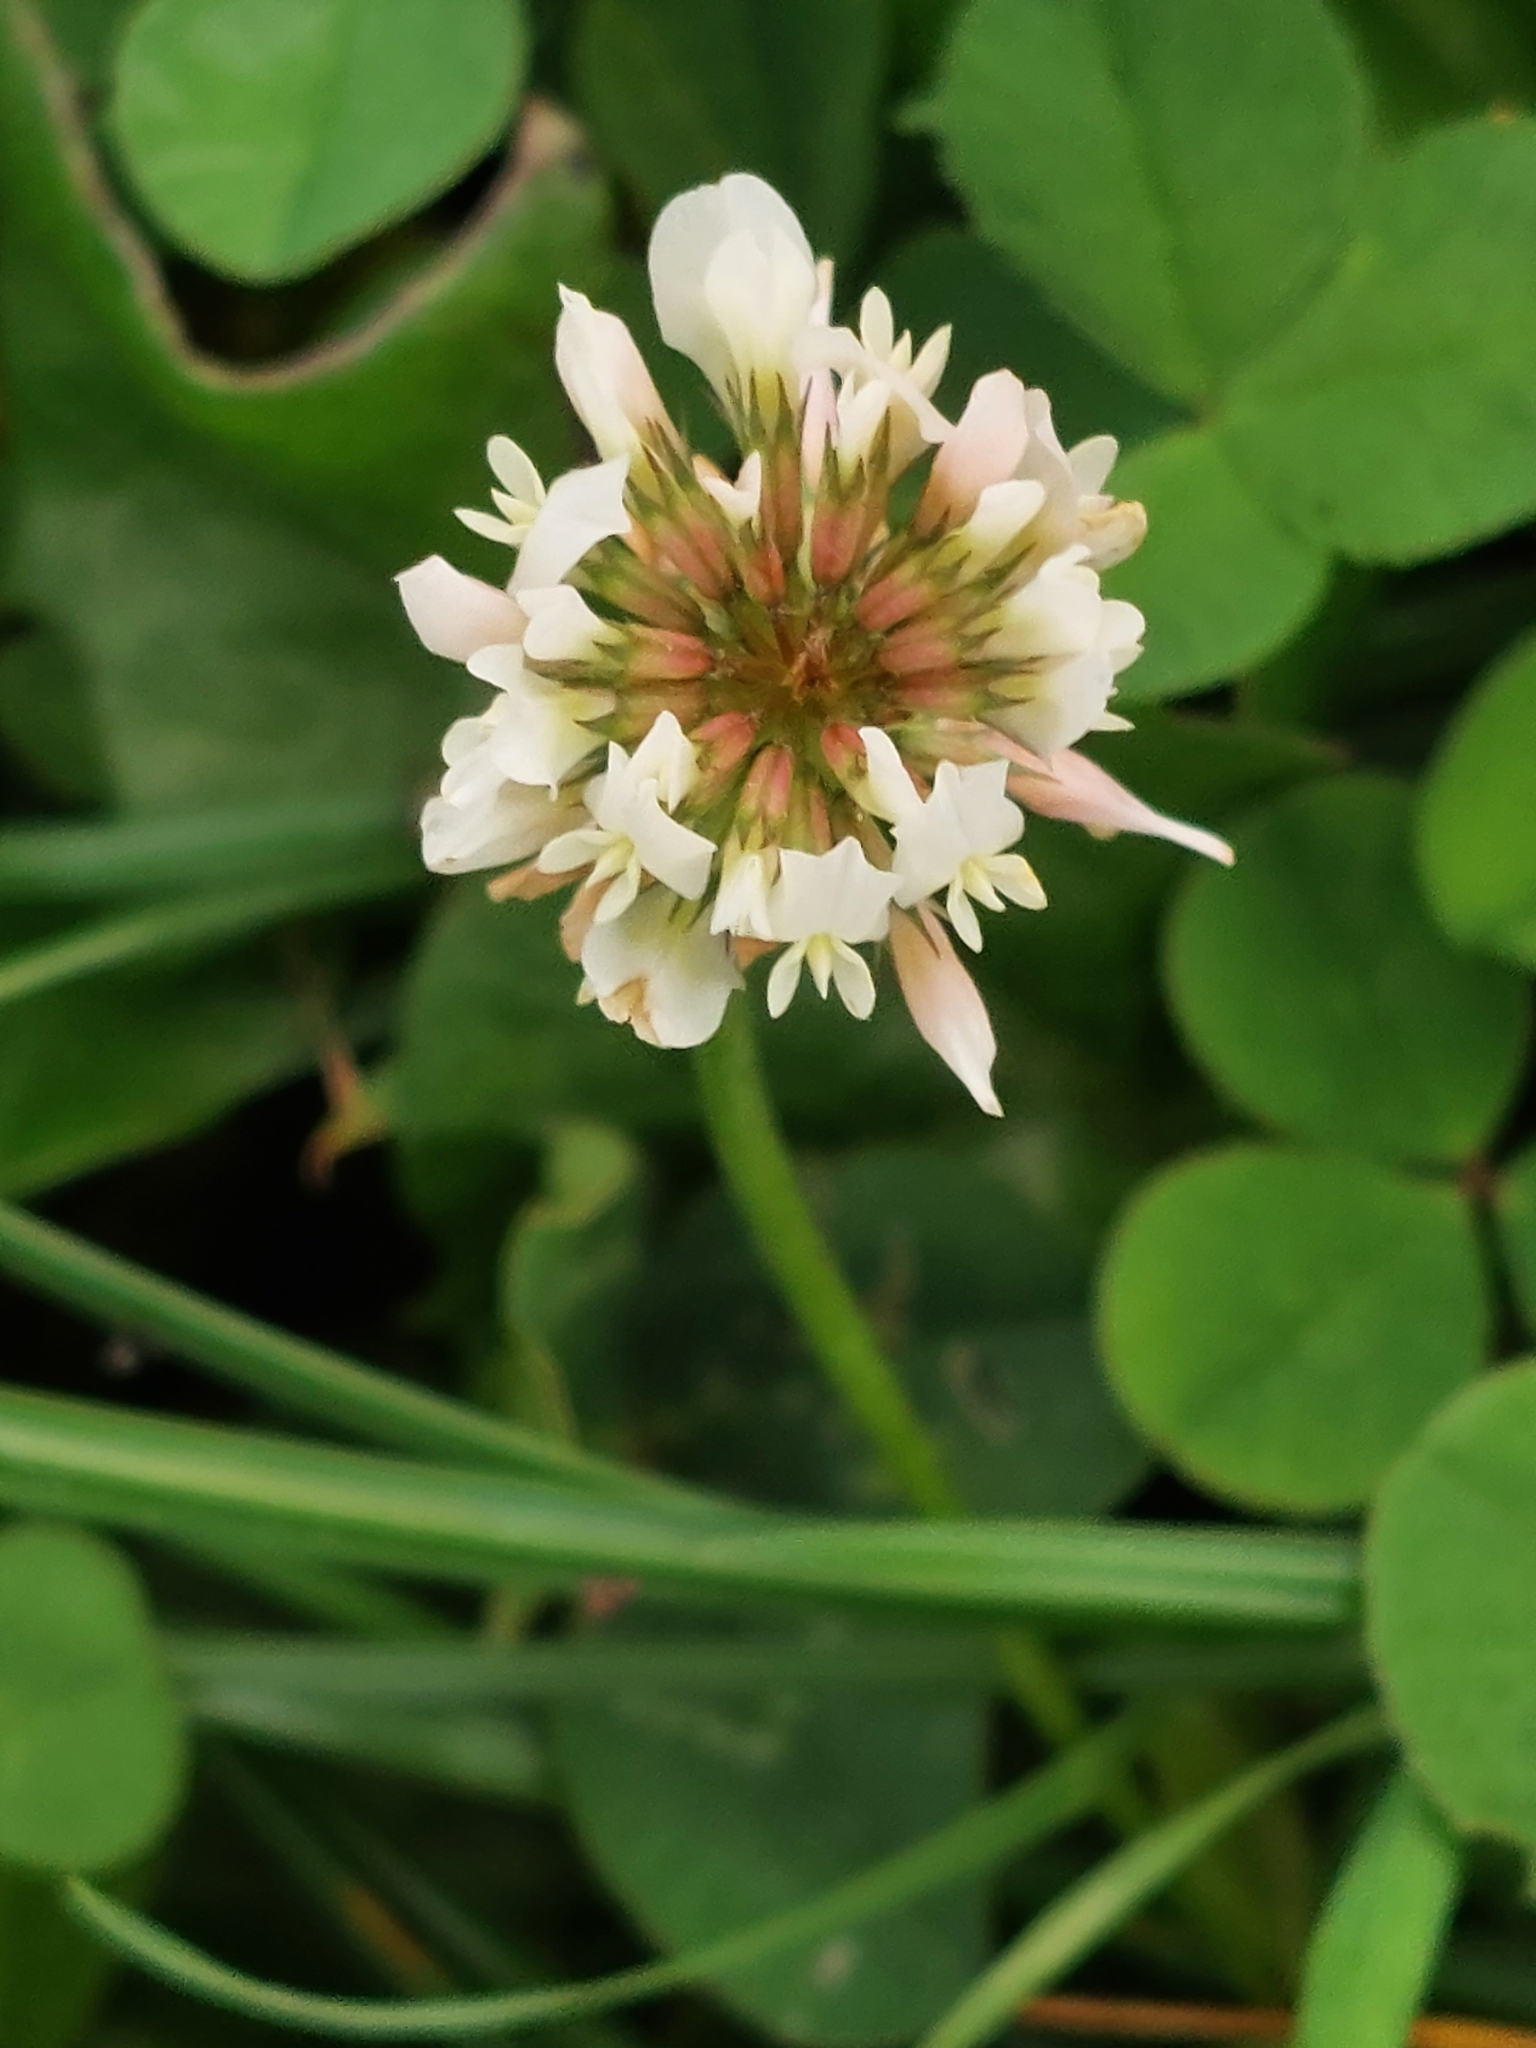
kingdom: Plantae
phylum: Tracheophyta
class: Magnoliopsida
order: Fabales
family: Fabaceae
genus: Trifolium
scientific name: Trifolium repens
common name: White clover
